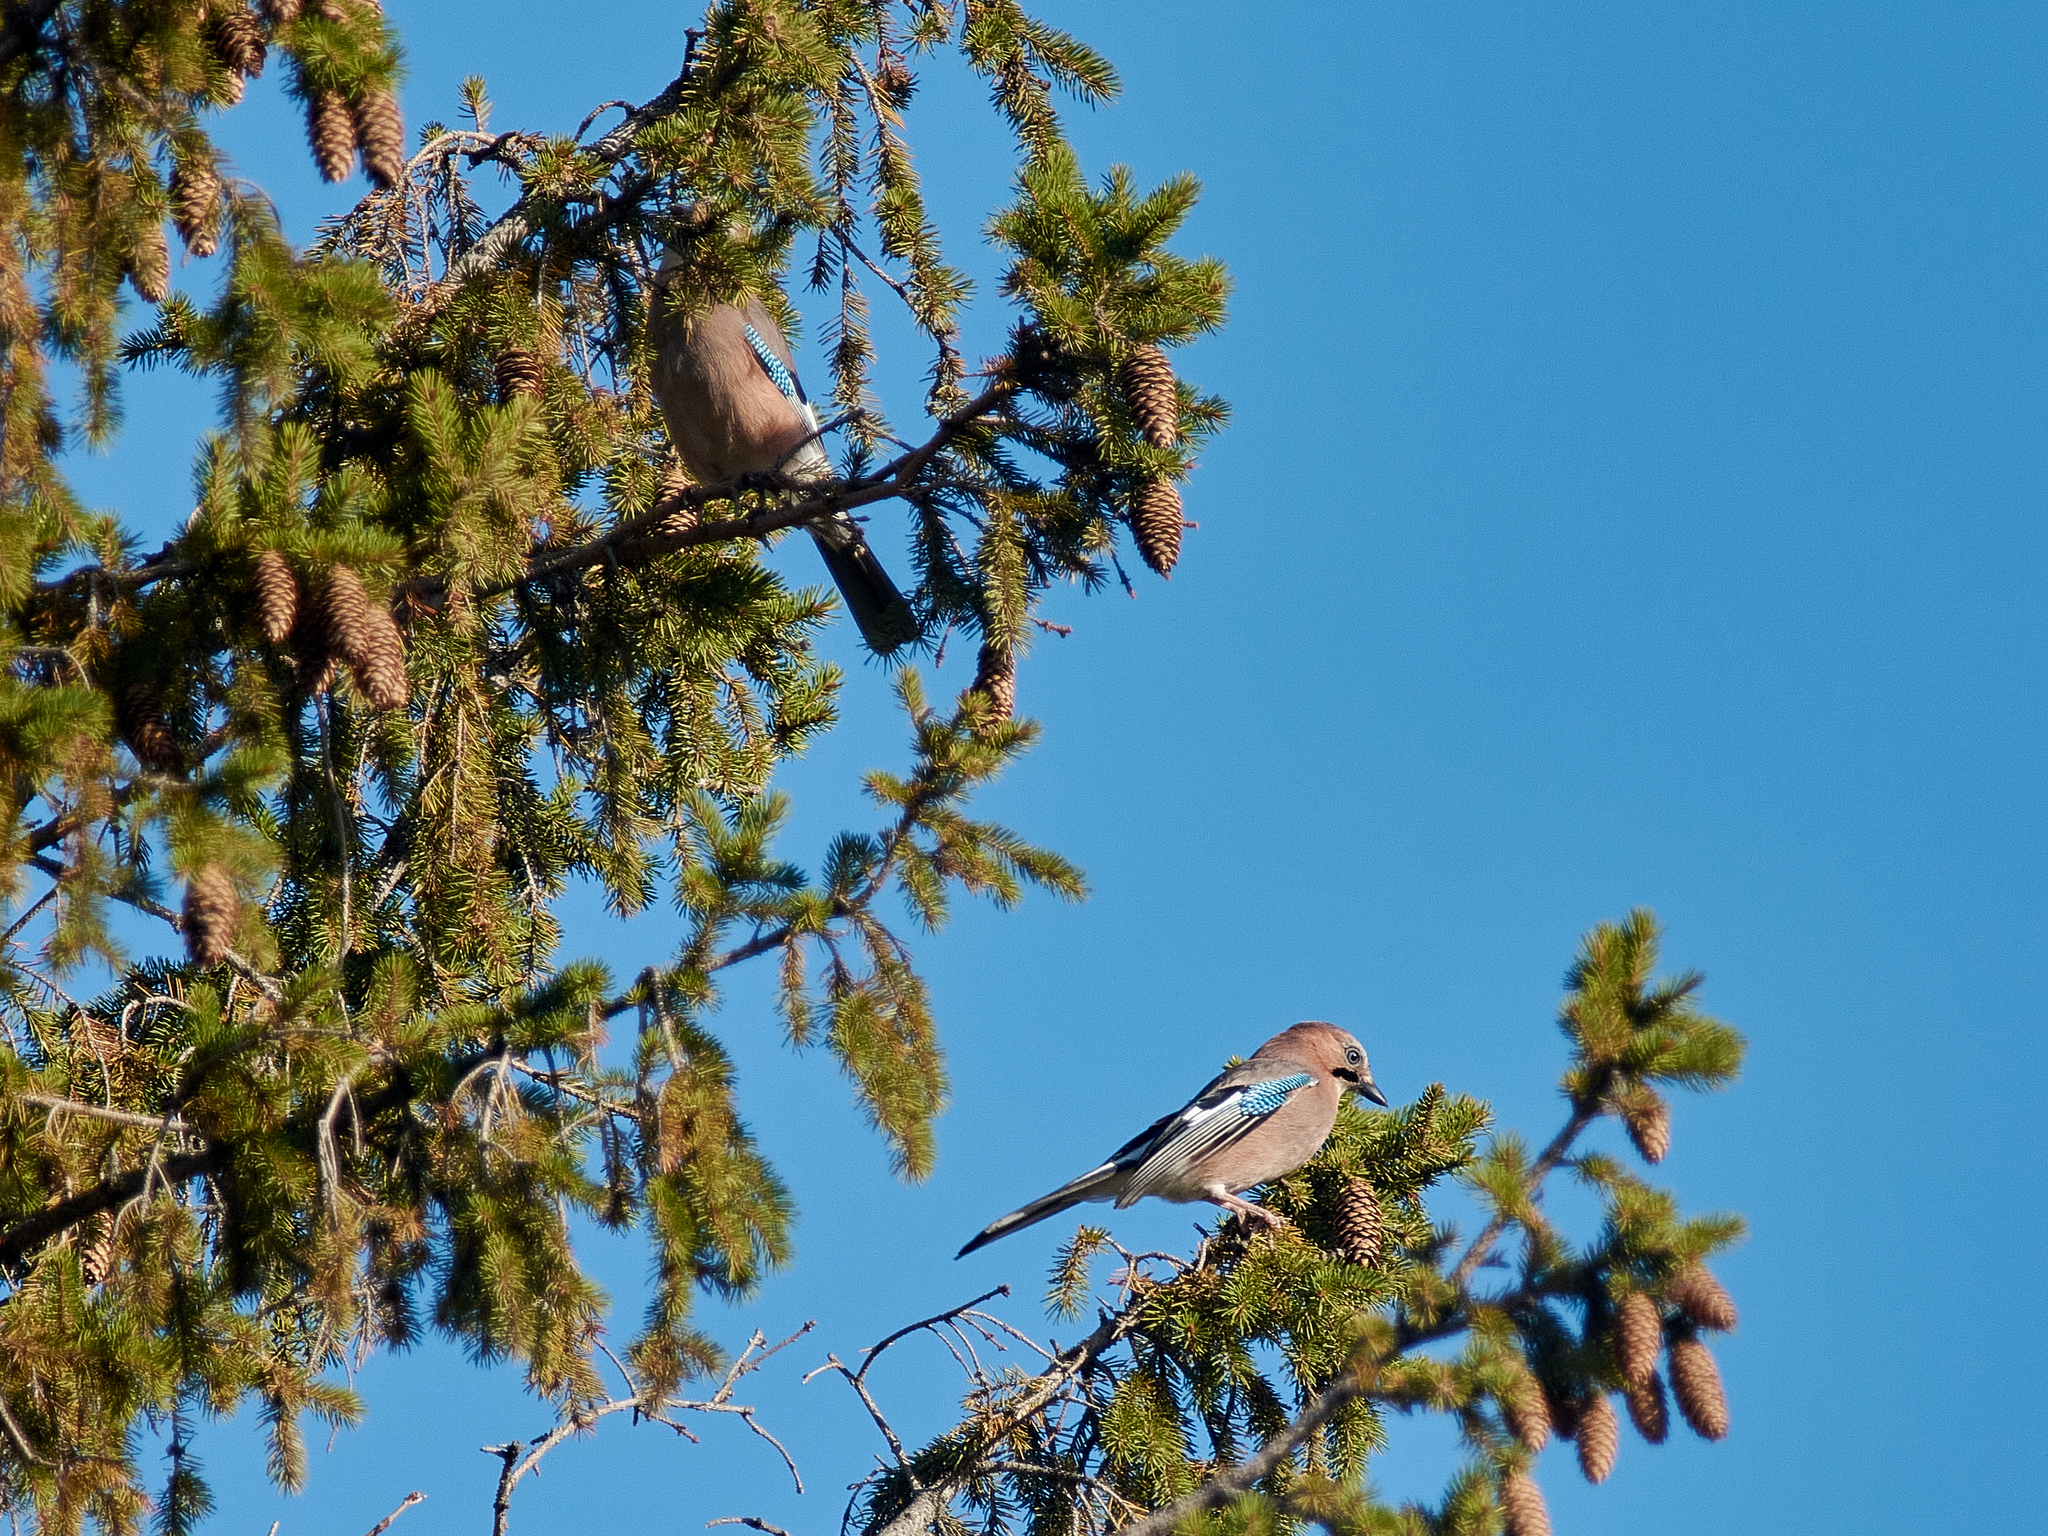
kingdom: Animalia
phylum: Chordata
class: Aves
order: Passeriformes
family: Corvidae
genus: Garrulus
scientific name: Garrulus glandarius
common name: Eurasian jay
